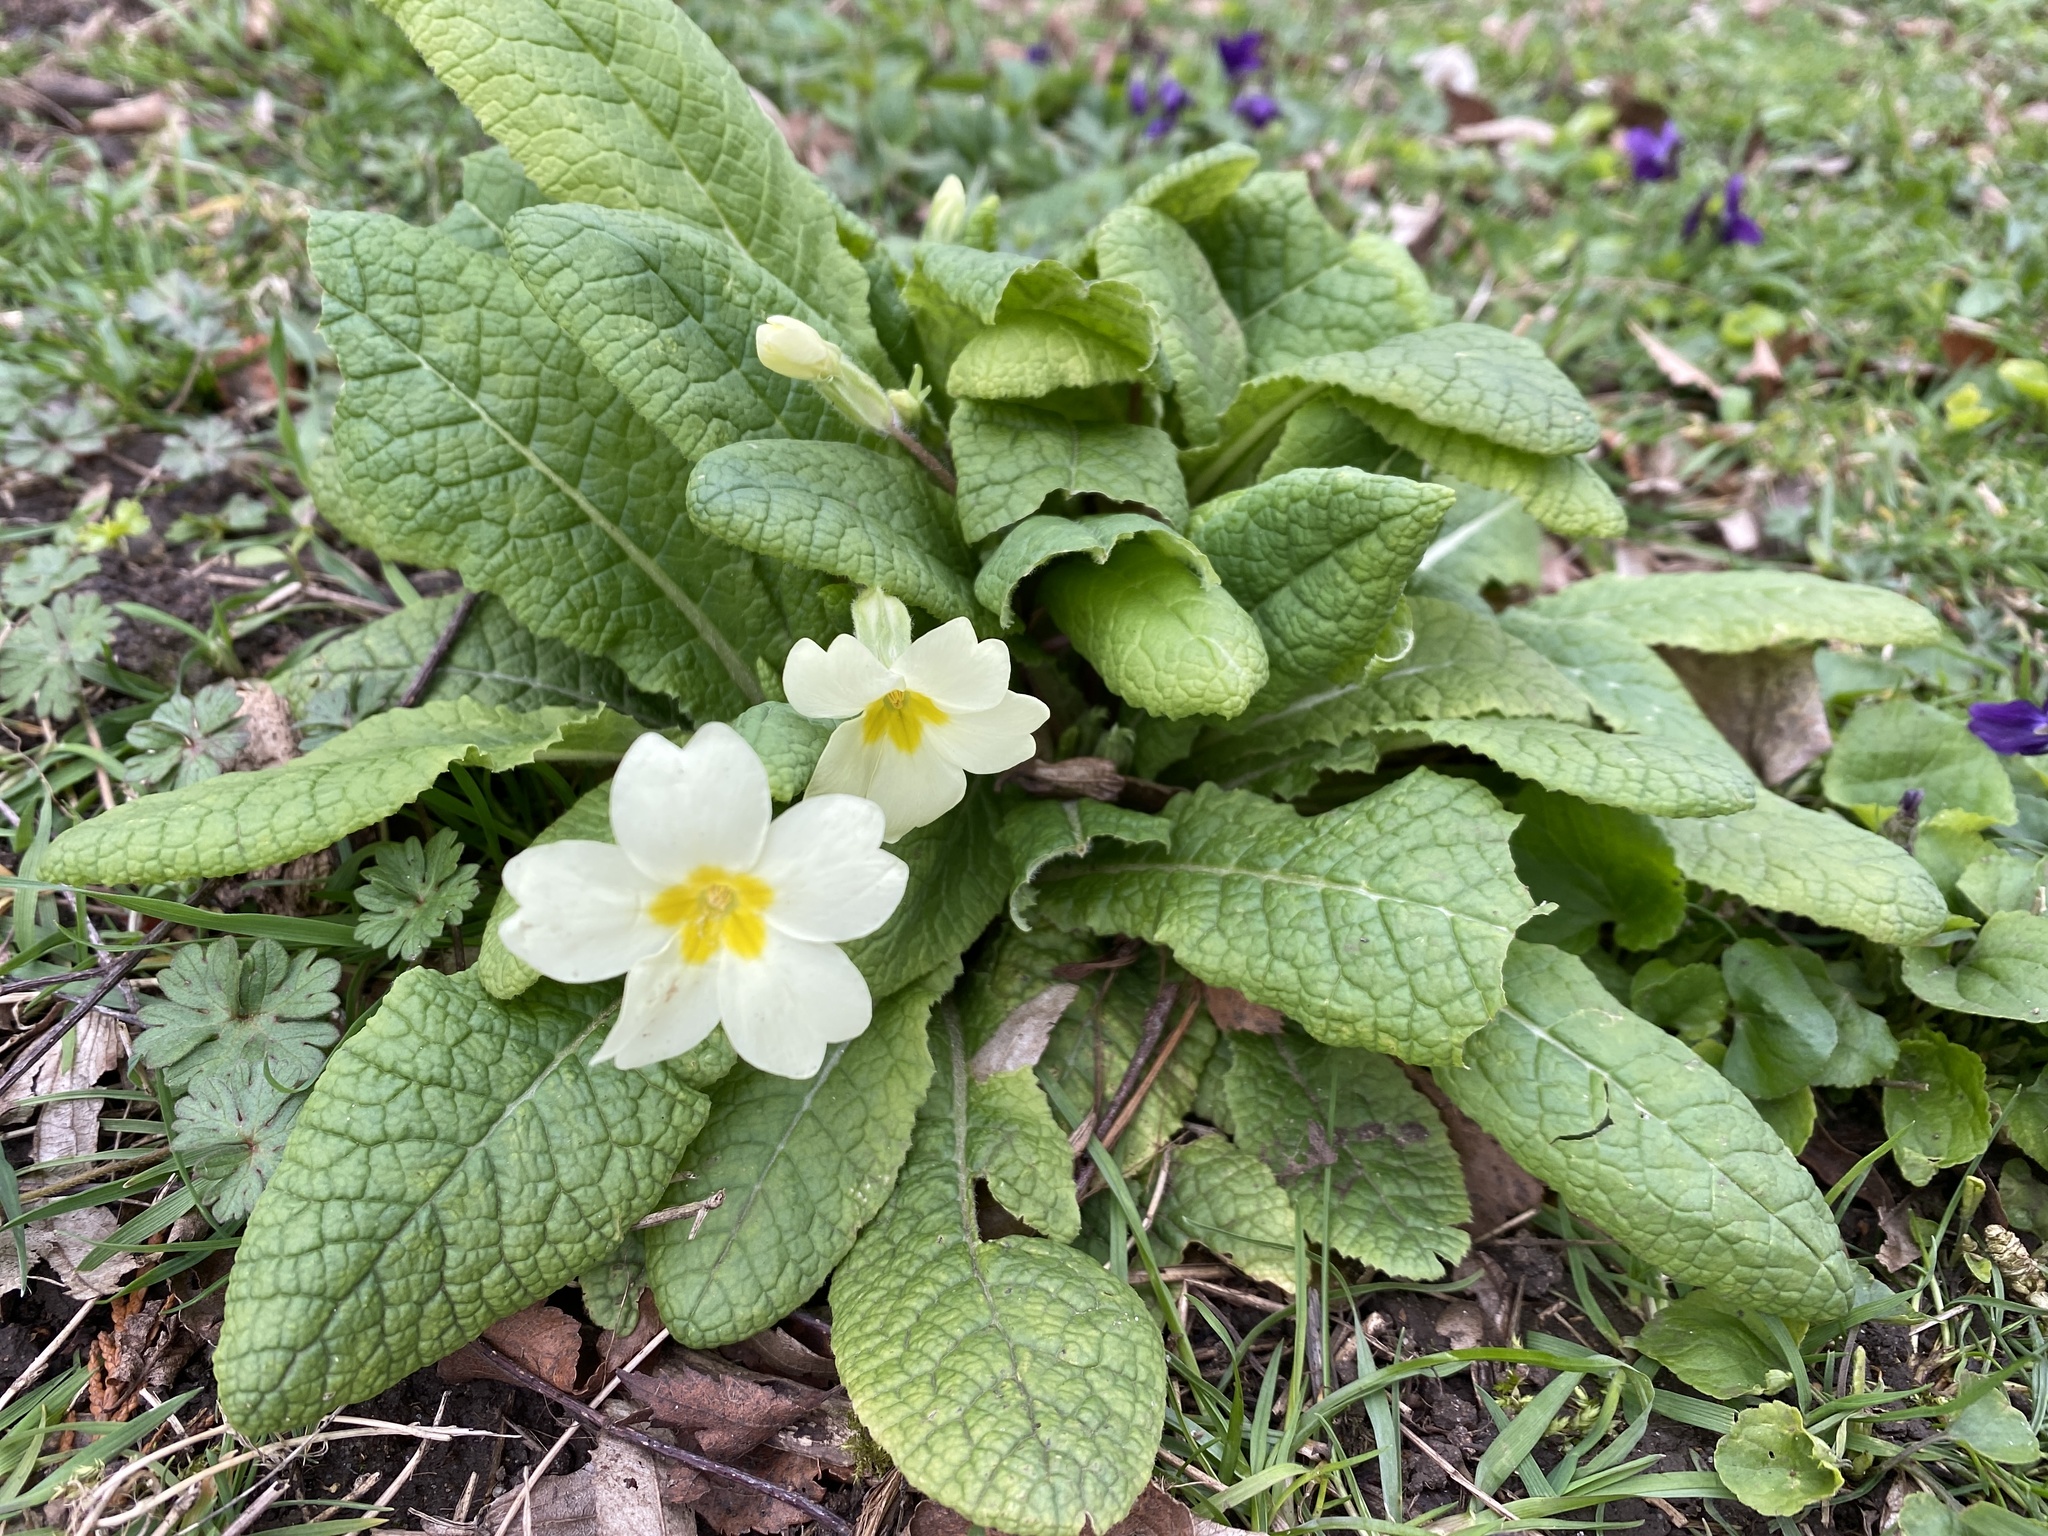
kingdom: Plantae
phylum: Tracheophyta
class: Magnoliopsida
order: Ericales
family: Primulaceae
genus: Primula
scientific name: Primula vulgaris
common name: Primrose
